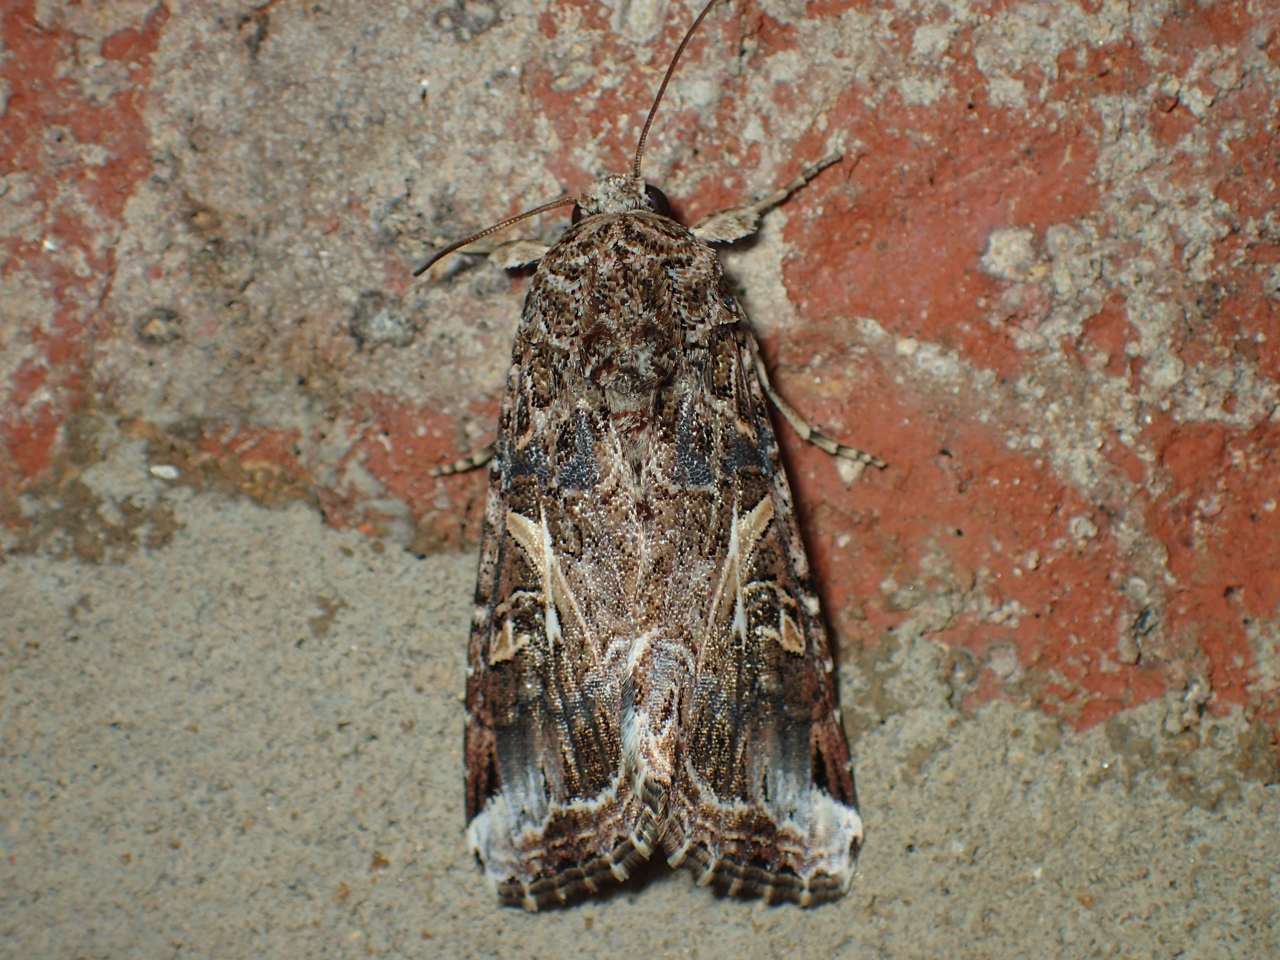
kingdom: Animalia
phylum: Arthropoda
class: Insecta
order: Lepidoptera
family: Noctuidae
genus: Spodoptera
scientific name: Spodoptera ornithogalli
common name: Yellow-striped armyworm
